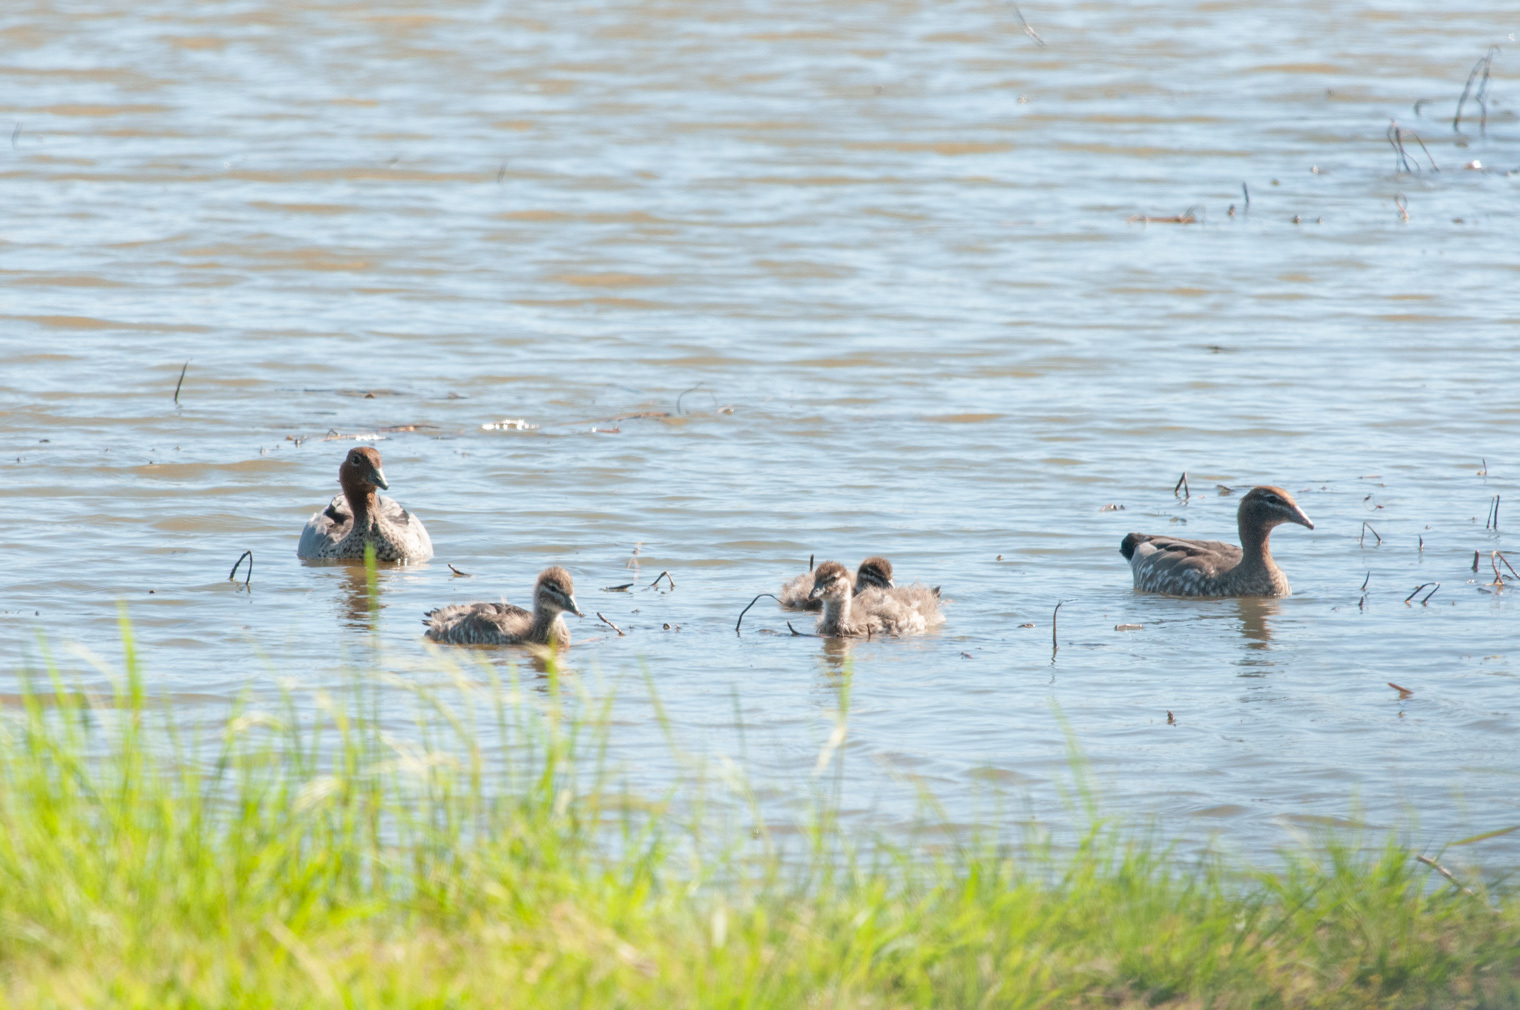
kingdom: Animalia
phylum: Chordata
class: Aves
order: Anseriformes
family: Anatidae
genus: Chenonetta
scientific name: Chenonetta jubata
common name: Maned duck
